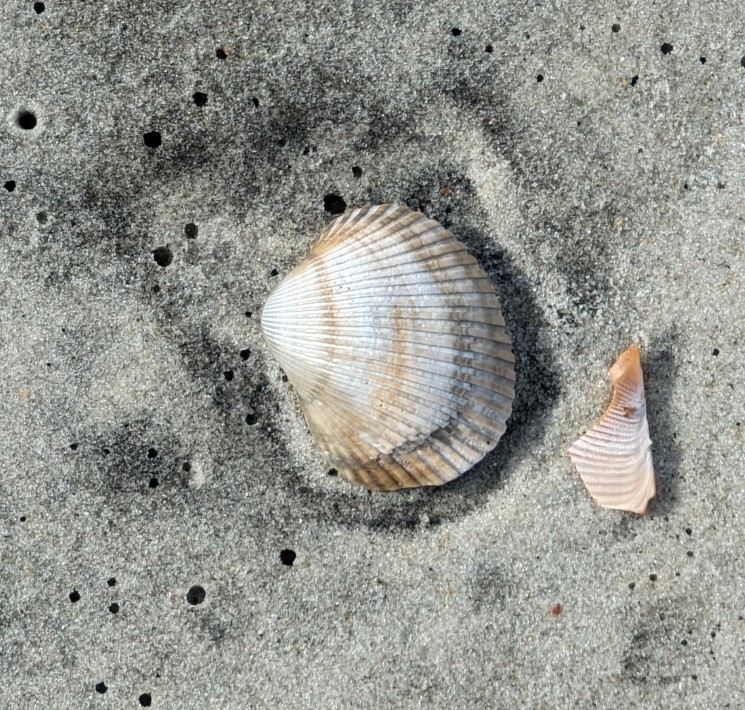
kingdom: Animalia
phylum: Mollusca
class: Bivalvia
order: Arcida
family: Arcidae
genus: Lunarca
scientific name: Lunarca ovalis
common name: Blood ark
